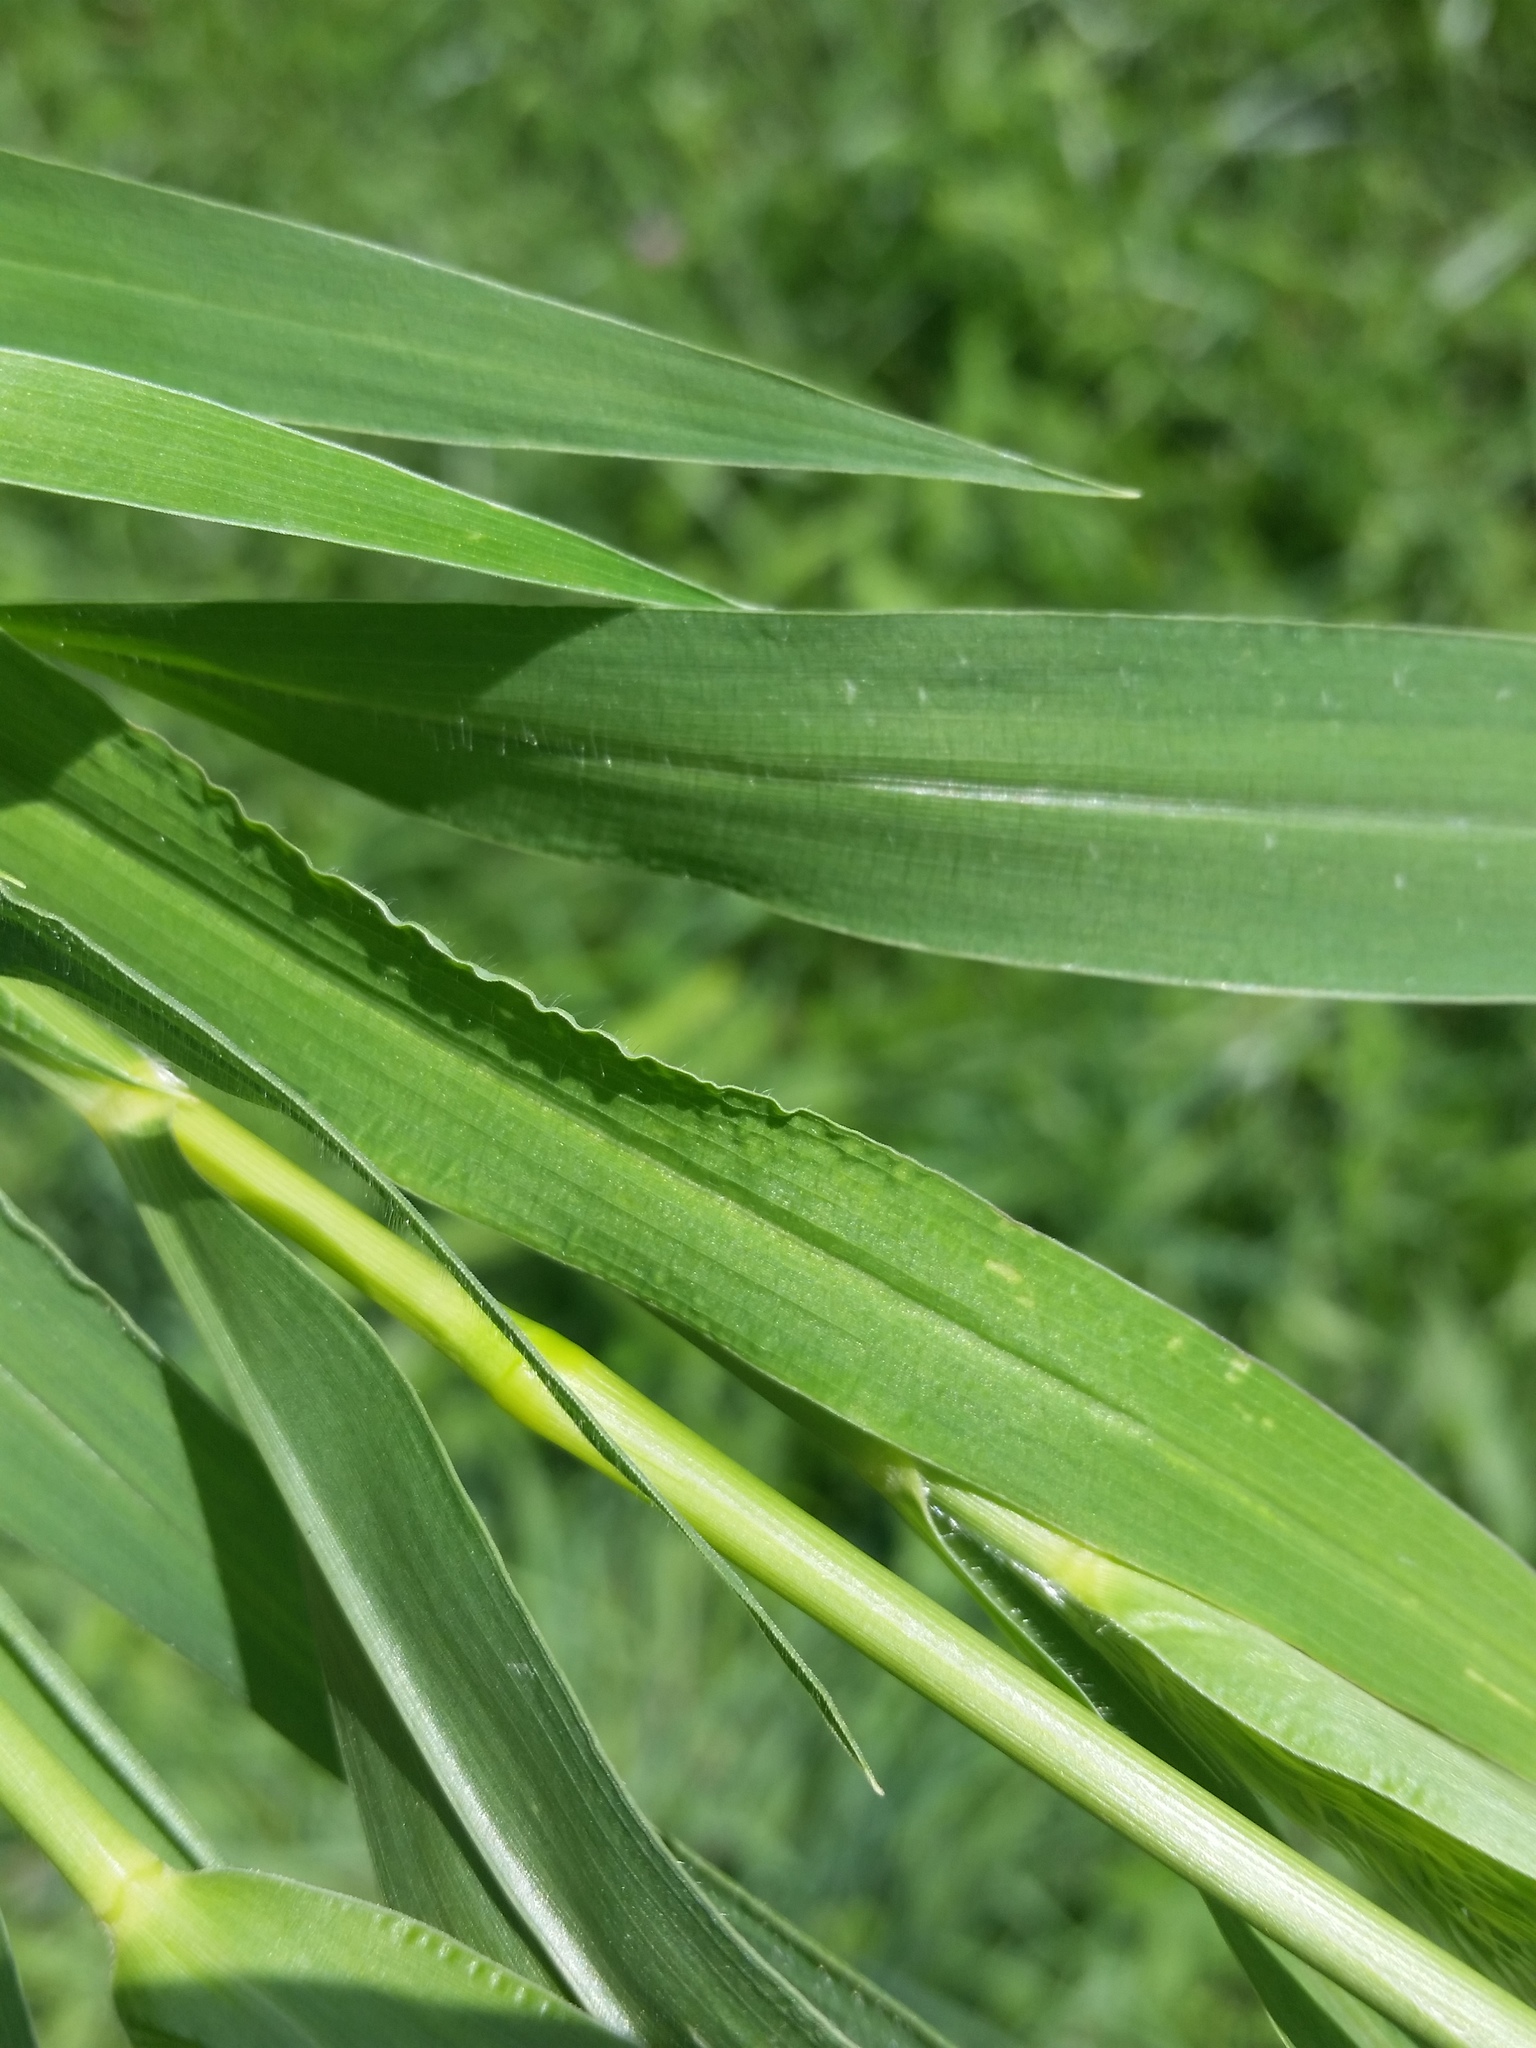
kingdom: Plantae
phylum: Tracheophyta
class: Liliopsida
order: Poales
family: Poaceae
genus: Setaria
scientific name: Setaria faberi
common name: Nodding bristle-grass
